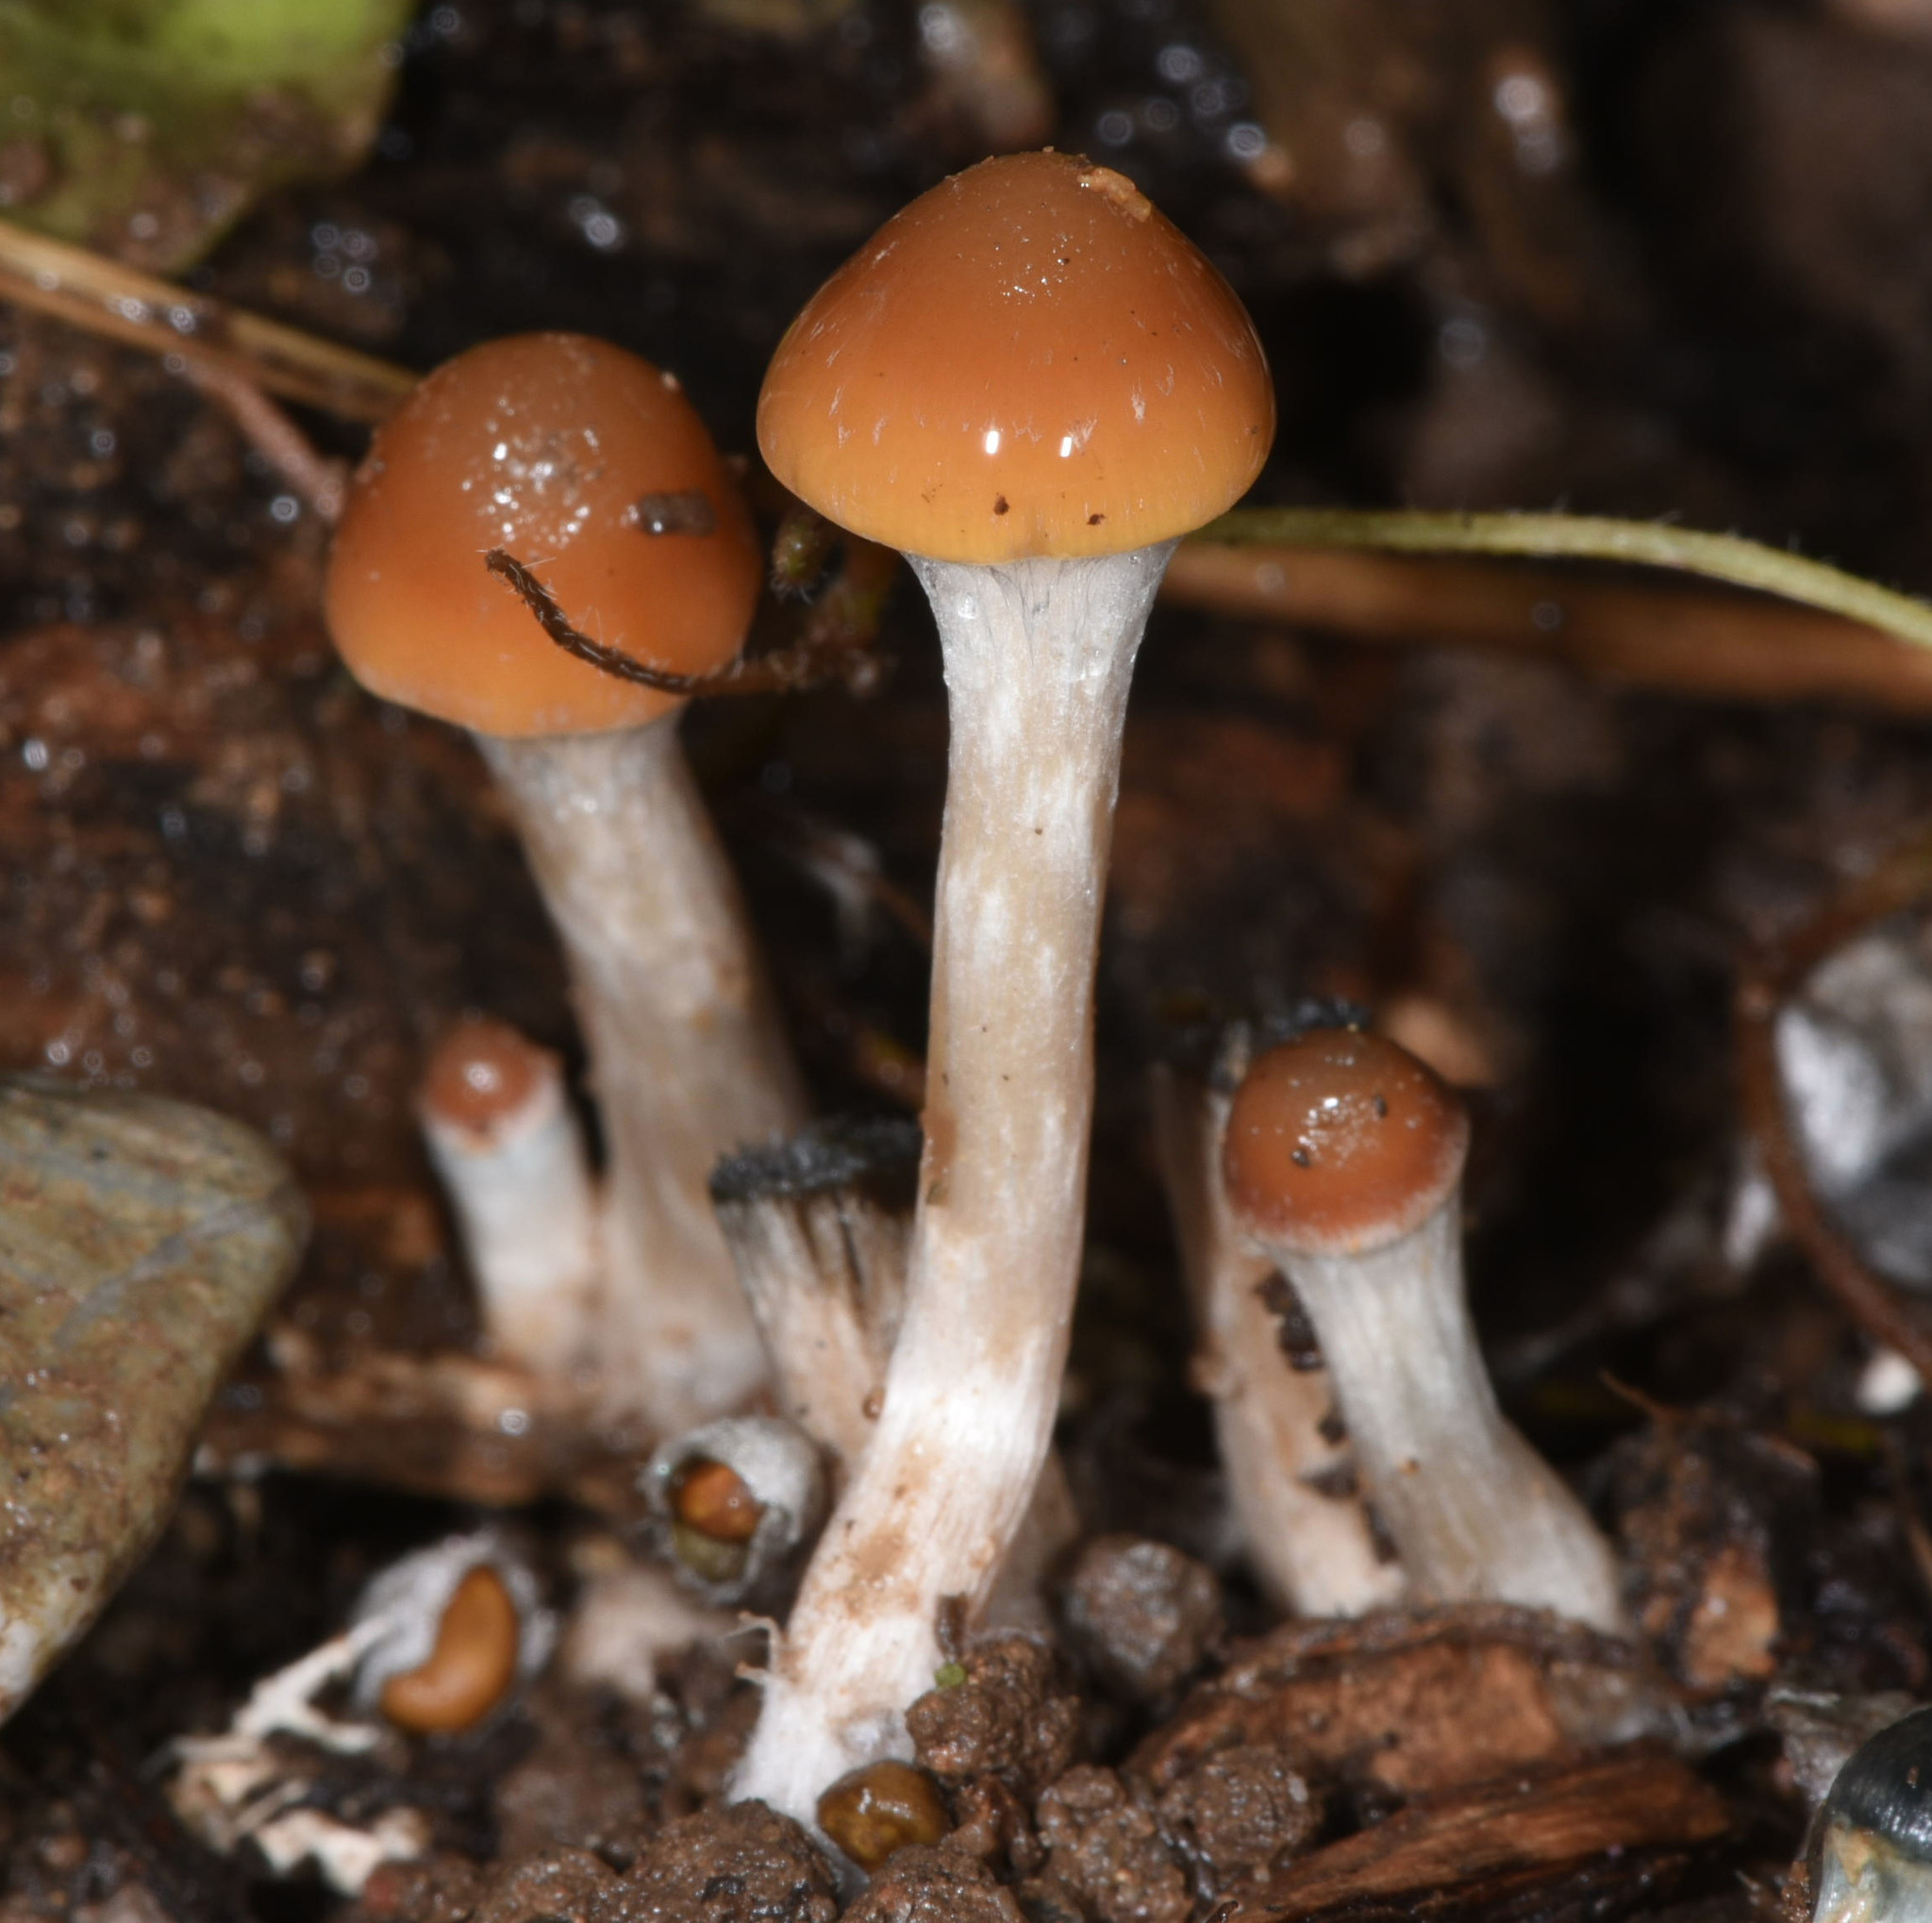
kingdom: Fungi
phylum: Basidiomycota
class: Agaricomycetes
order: Agaricales
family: Hymenogastraceae
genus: Psilocybe
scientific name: Psilocybe cyanescens
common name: Blueleg brownie
